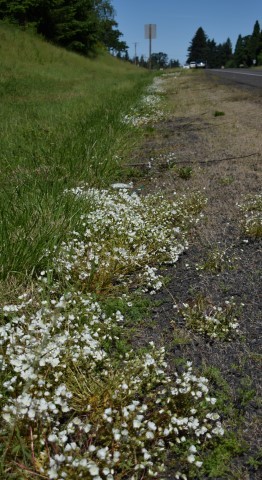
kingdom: Plantae
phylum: Tracheophyta
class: Magnoliopsida
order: Brassicales
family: Limnanthaceae
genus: Limnanthes
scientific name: Limnanthes alba
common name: Meadowfoam
